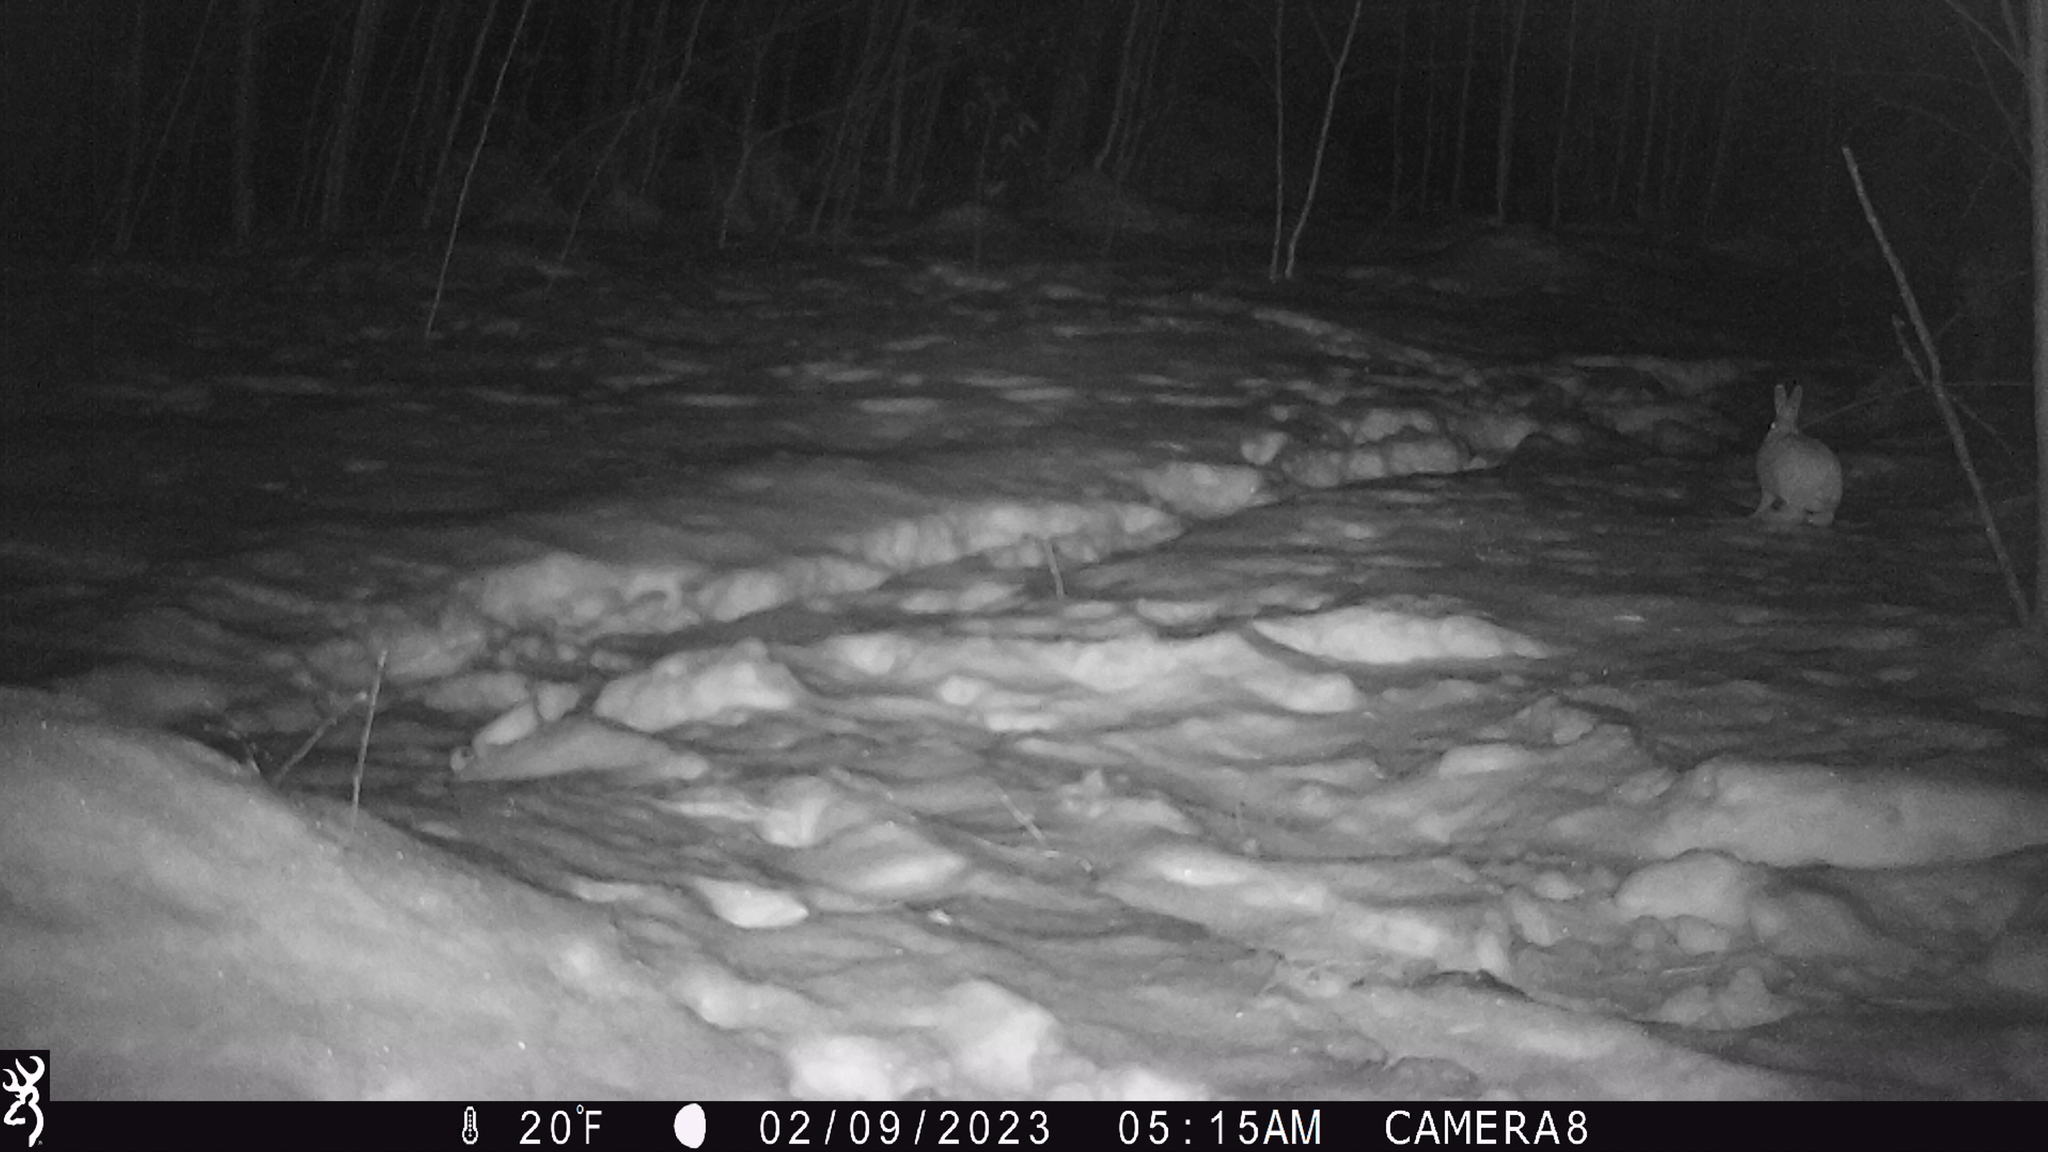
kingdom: Animalia
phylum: Chordata
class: Mammalia
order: Lagomorpha
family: Leporidae
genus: Lepus
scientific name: Lepus americanus
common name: Snowshoe hare
